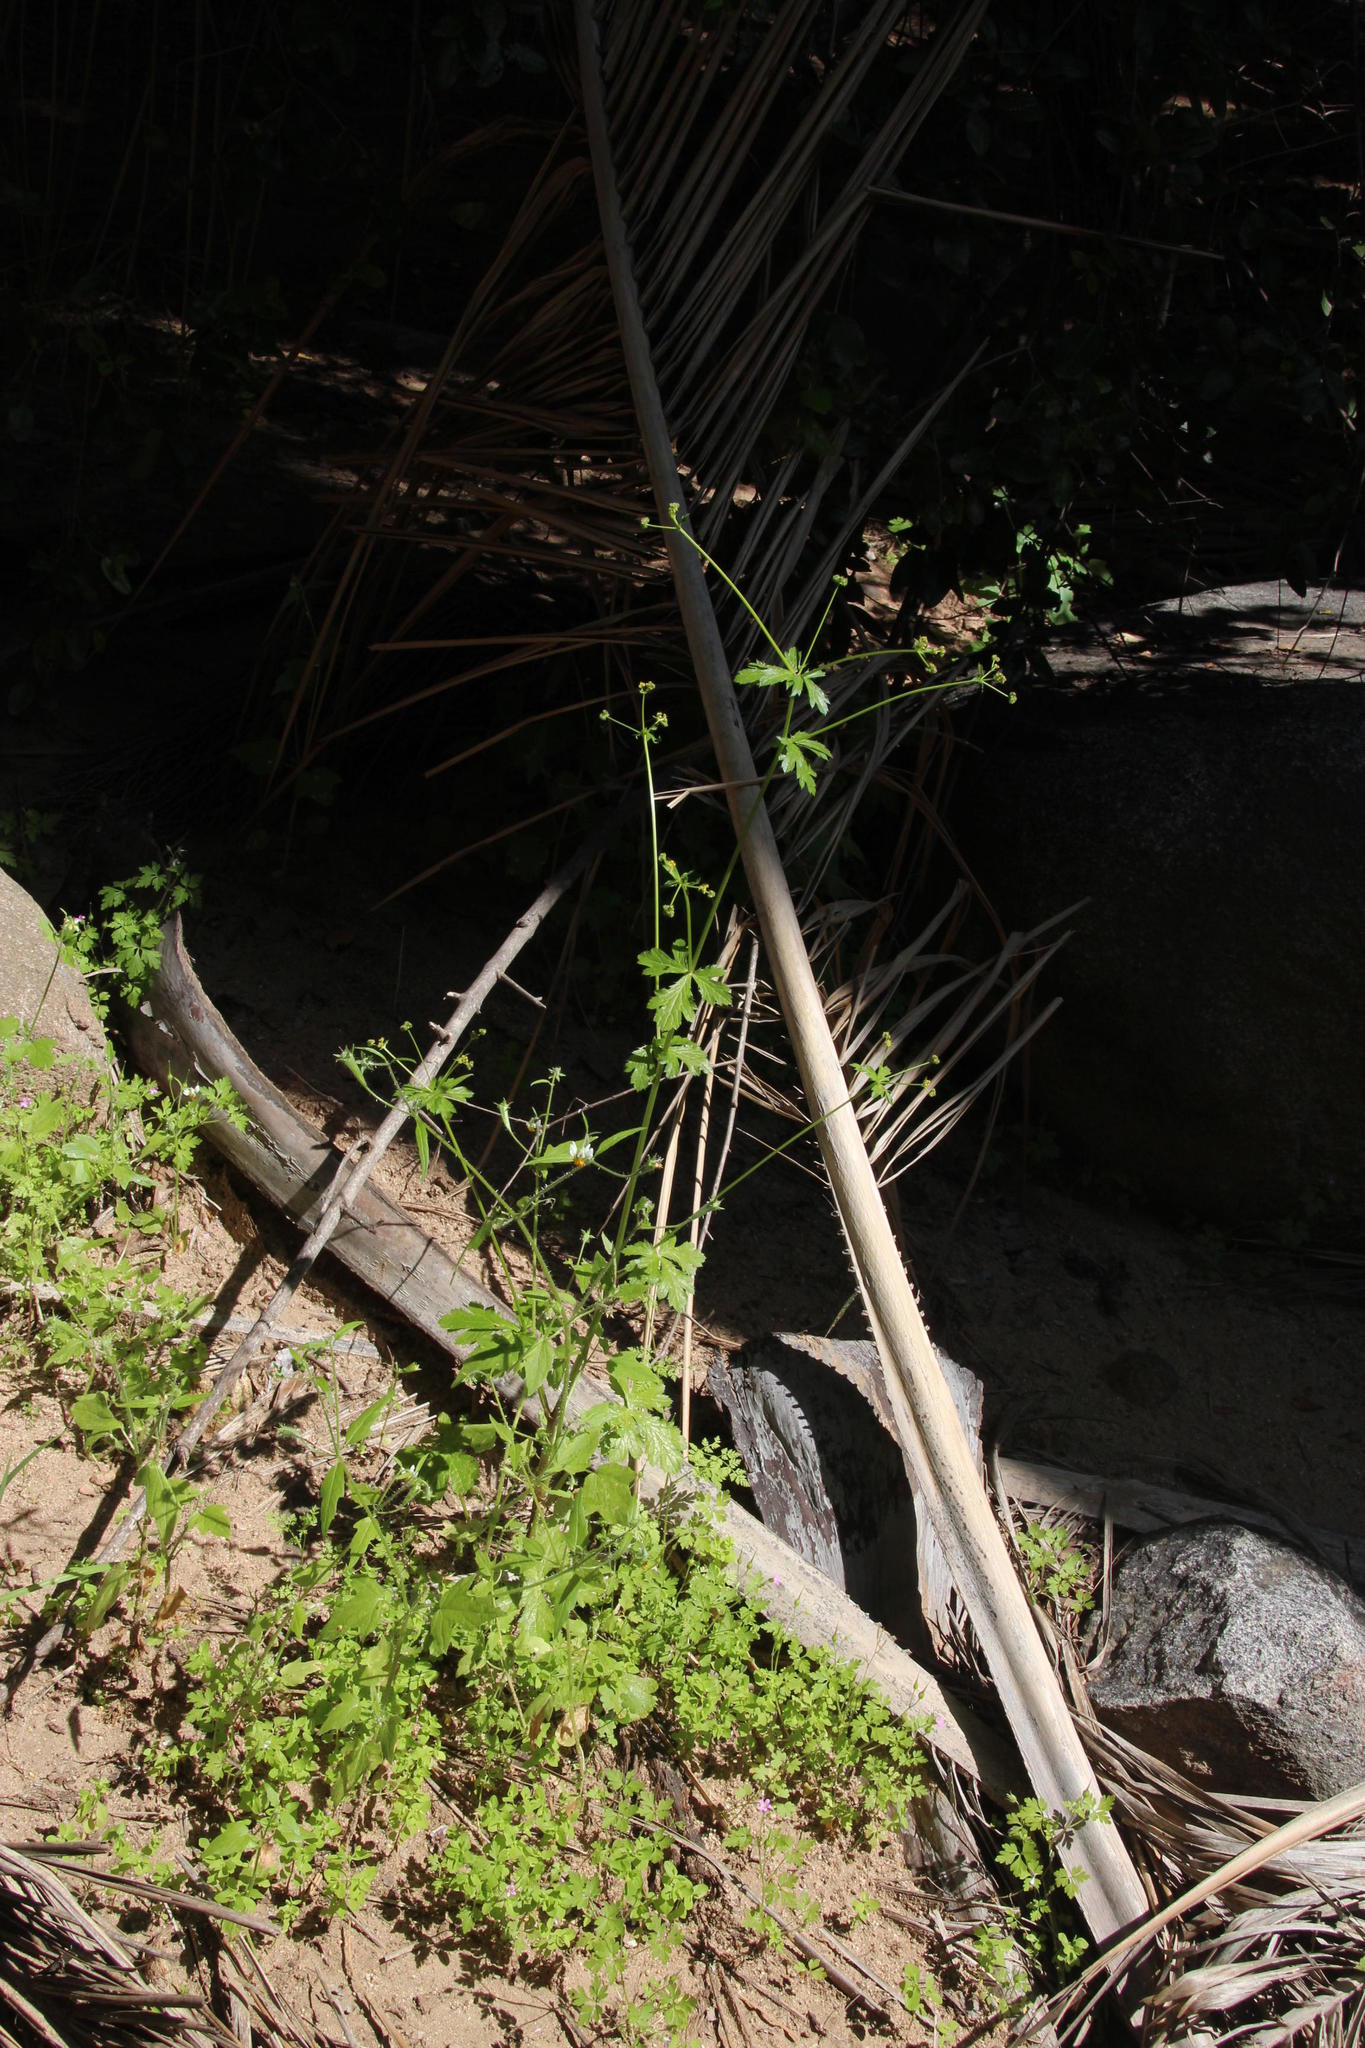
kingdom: Plantae
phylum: Tracheophyta
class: Magnoliopsida
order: Apiales
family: Apiaceae
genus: Sanicula
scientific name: Sanicula crassicaulis
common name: Western snakeroot
